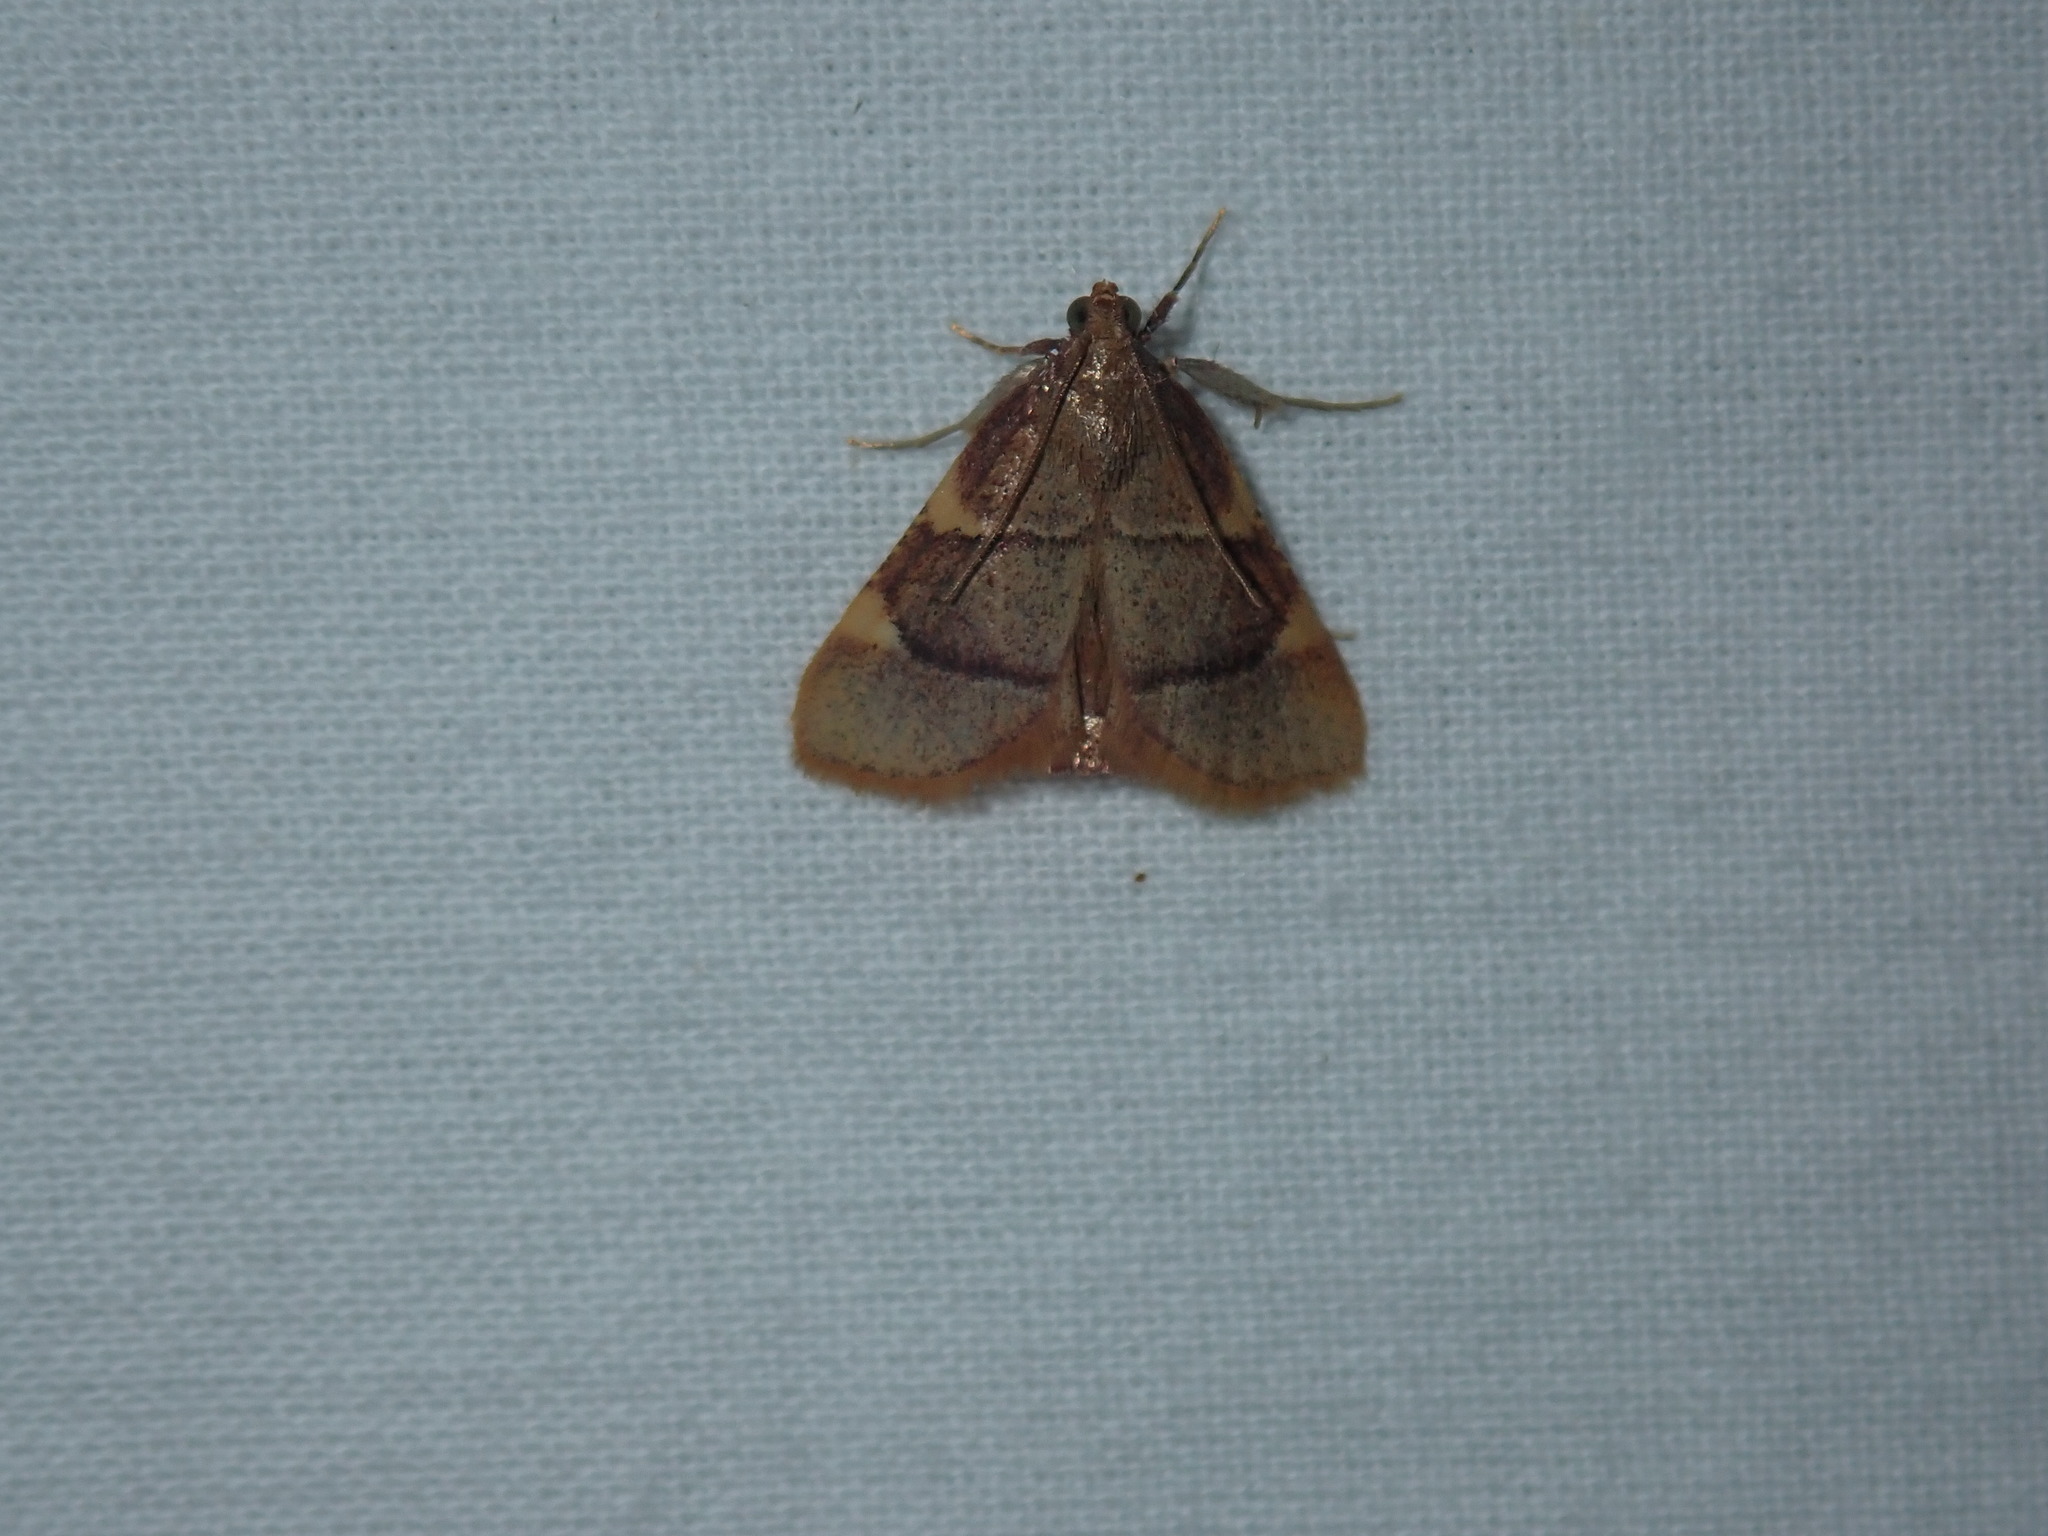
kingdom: Animalia
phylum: Arthropoda
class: Insecta
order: Lepidoptera
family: Pyralidae
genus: Hypsopygia
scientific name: Hypsopygia costalis
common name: Gold triangle
